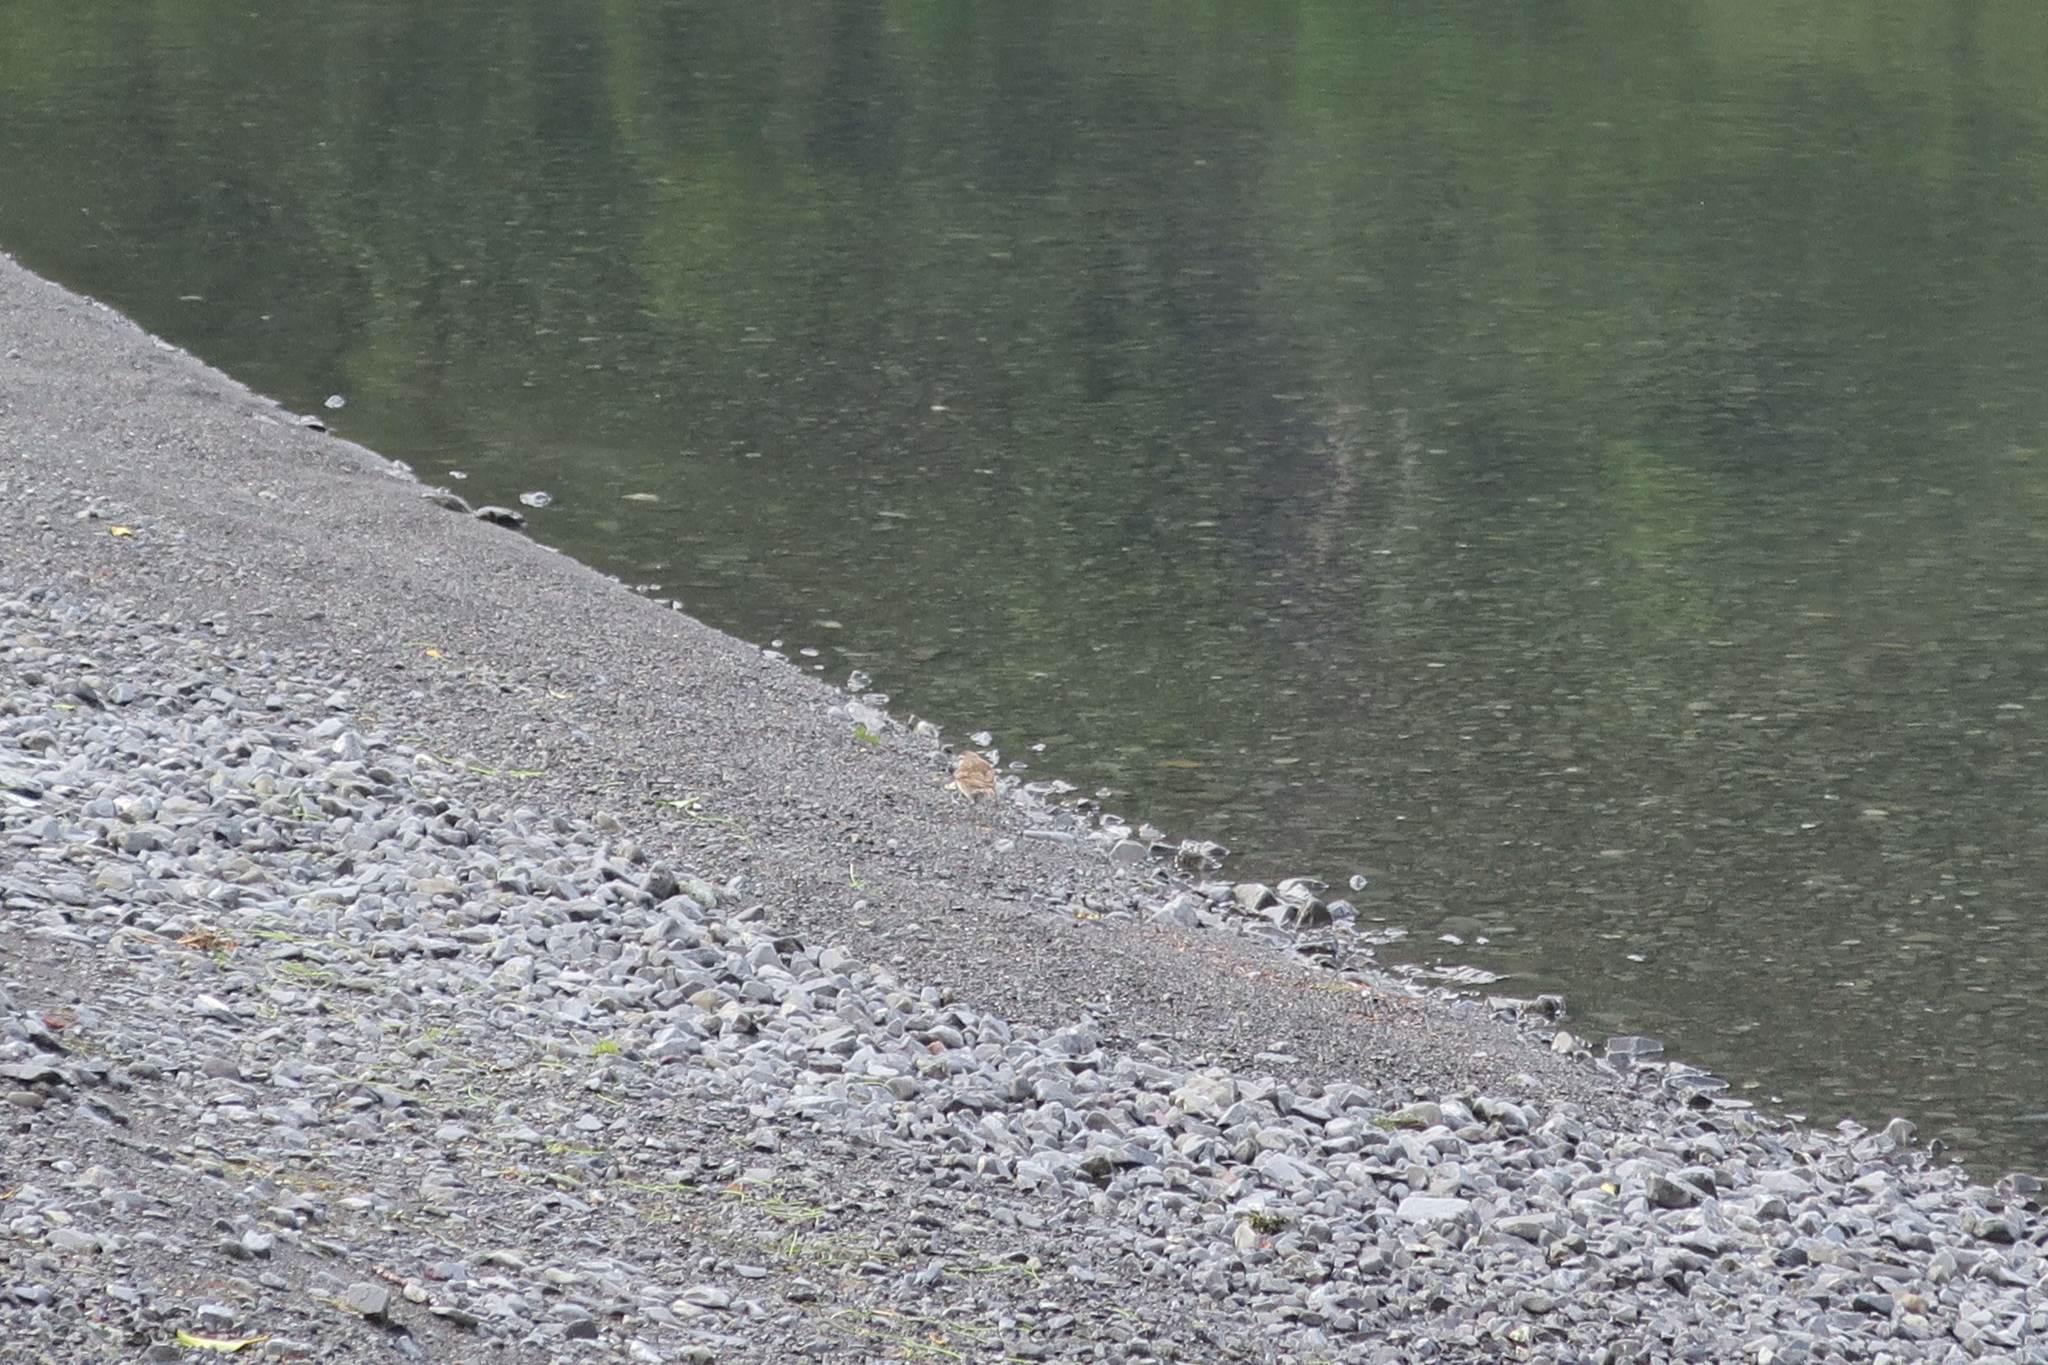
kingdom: Animalia
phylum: Chordata
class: Aves
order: Passeriformes
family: Motacillidae
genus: Anthus
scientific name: Anthus novaeseelandiae
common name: New zealand pipit
